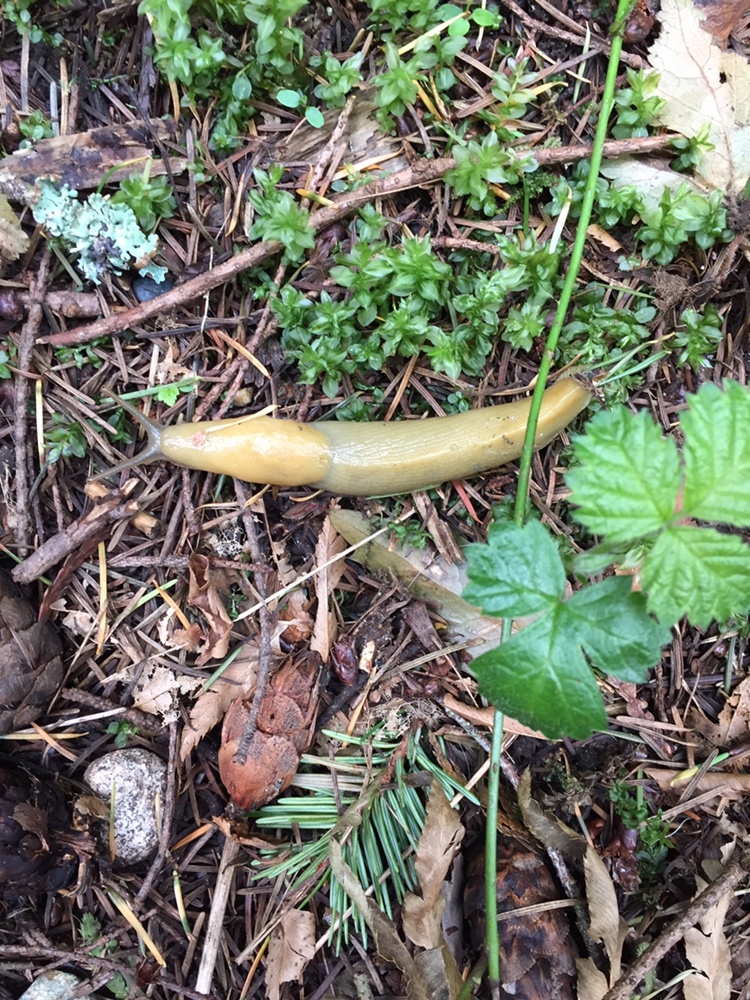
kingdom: Animalia
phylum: Mollusca
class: Gastropoda
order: Stylommatophora
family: Ariolimacidae
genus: Ariolimax
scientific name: Ariolimax columbianus
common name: Pacific banana slug
